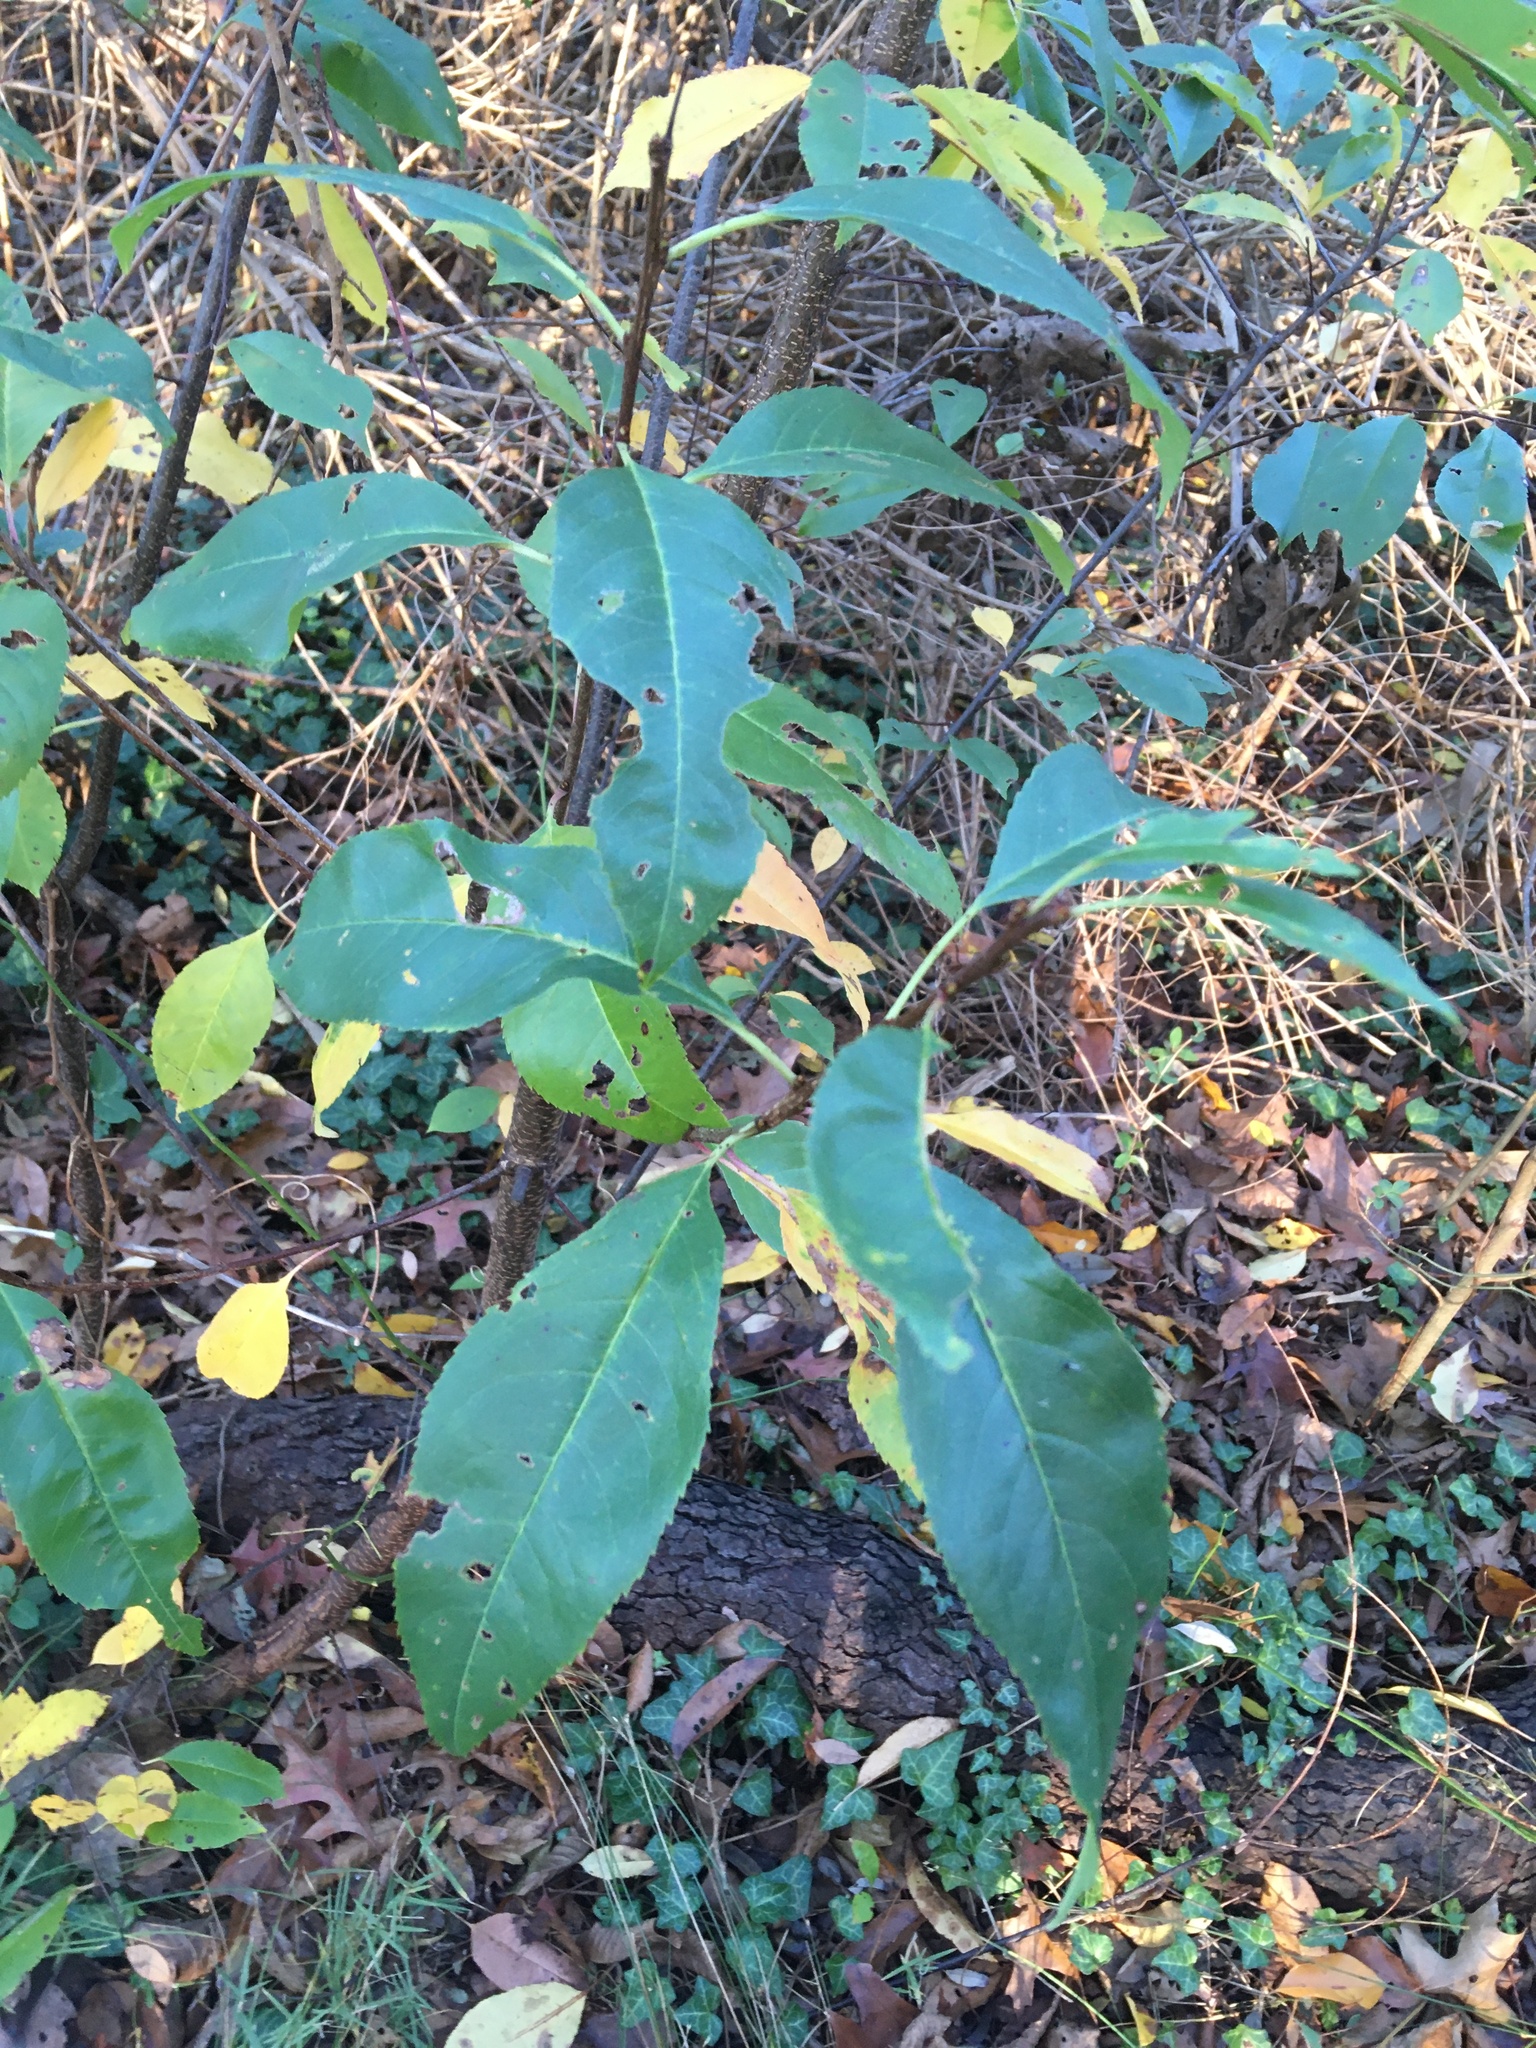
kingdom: Plantae
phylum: Tracheophyta
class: Magnoliopsida
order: Rosales
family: Rosaceae
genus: Prunus
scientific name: Prunus serotina
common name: Black cherry
